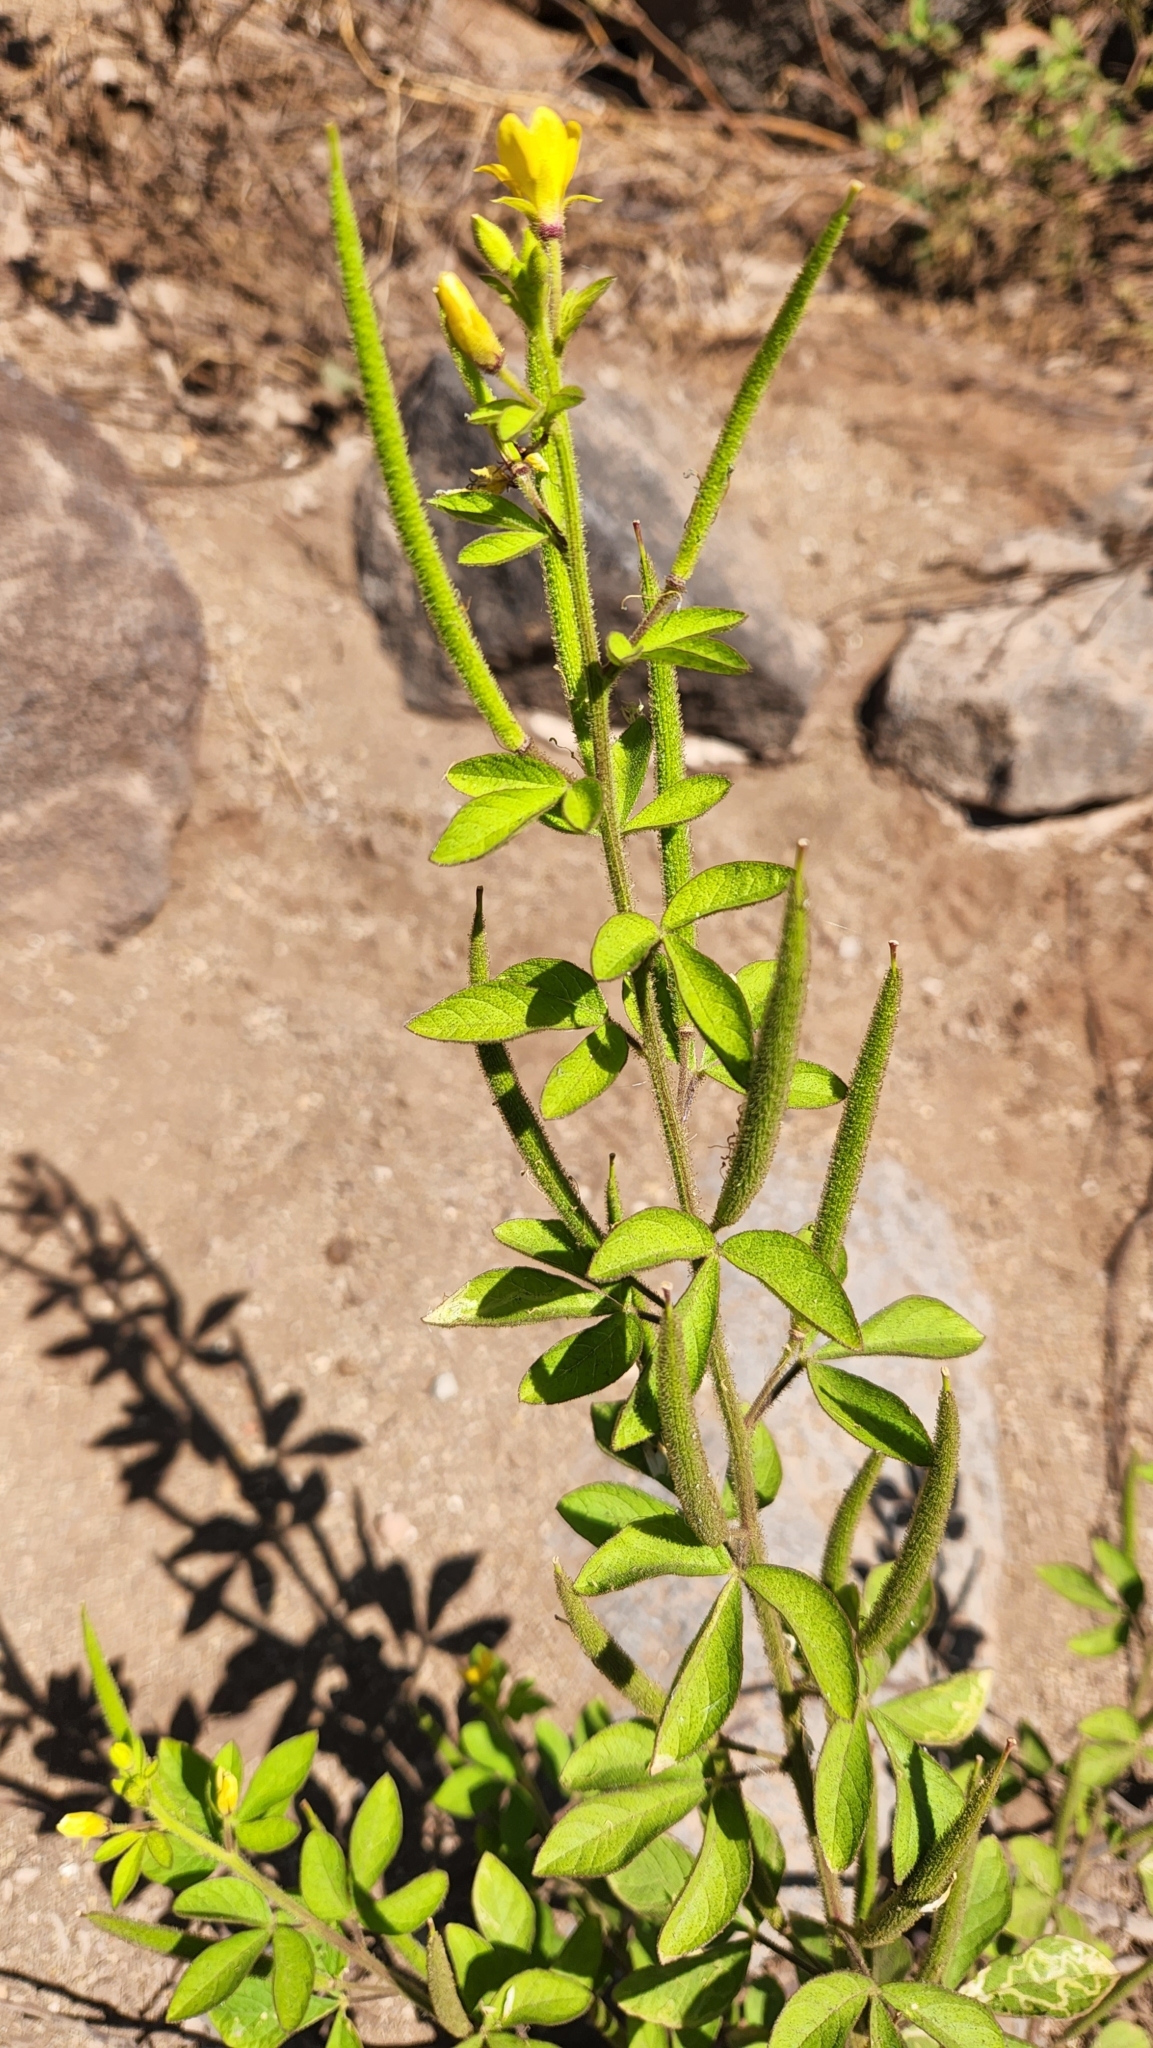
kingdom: Plantae
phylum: Tracheophyta
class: Magnoliopsida
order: Brassicales
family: Cleomaceae
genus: Arivela
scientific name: Arivela viscosa
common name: Asian spiderflower
